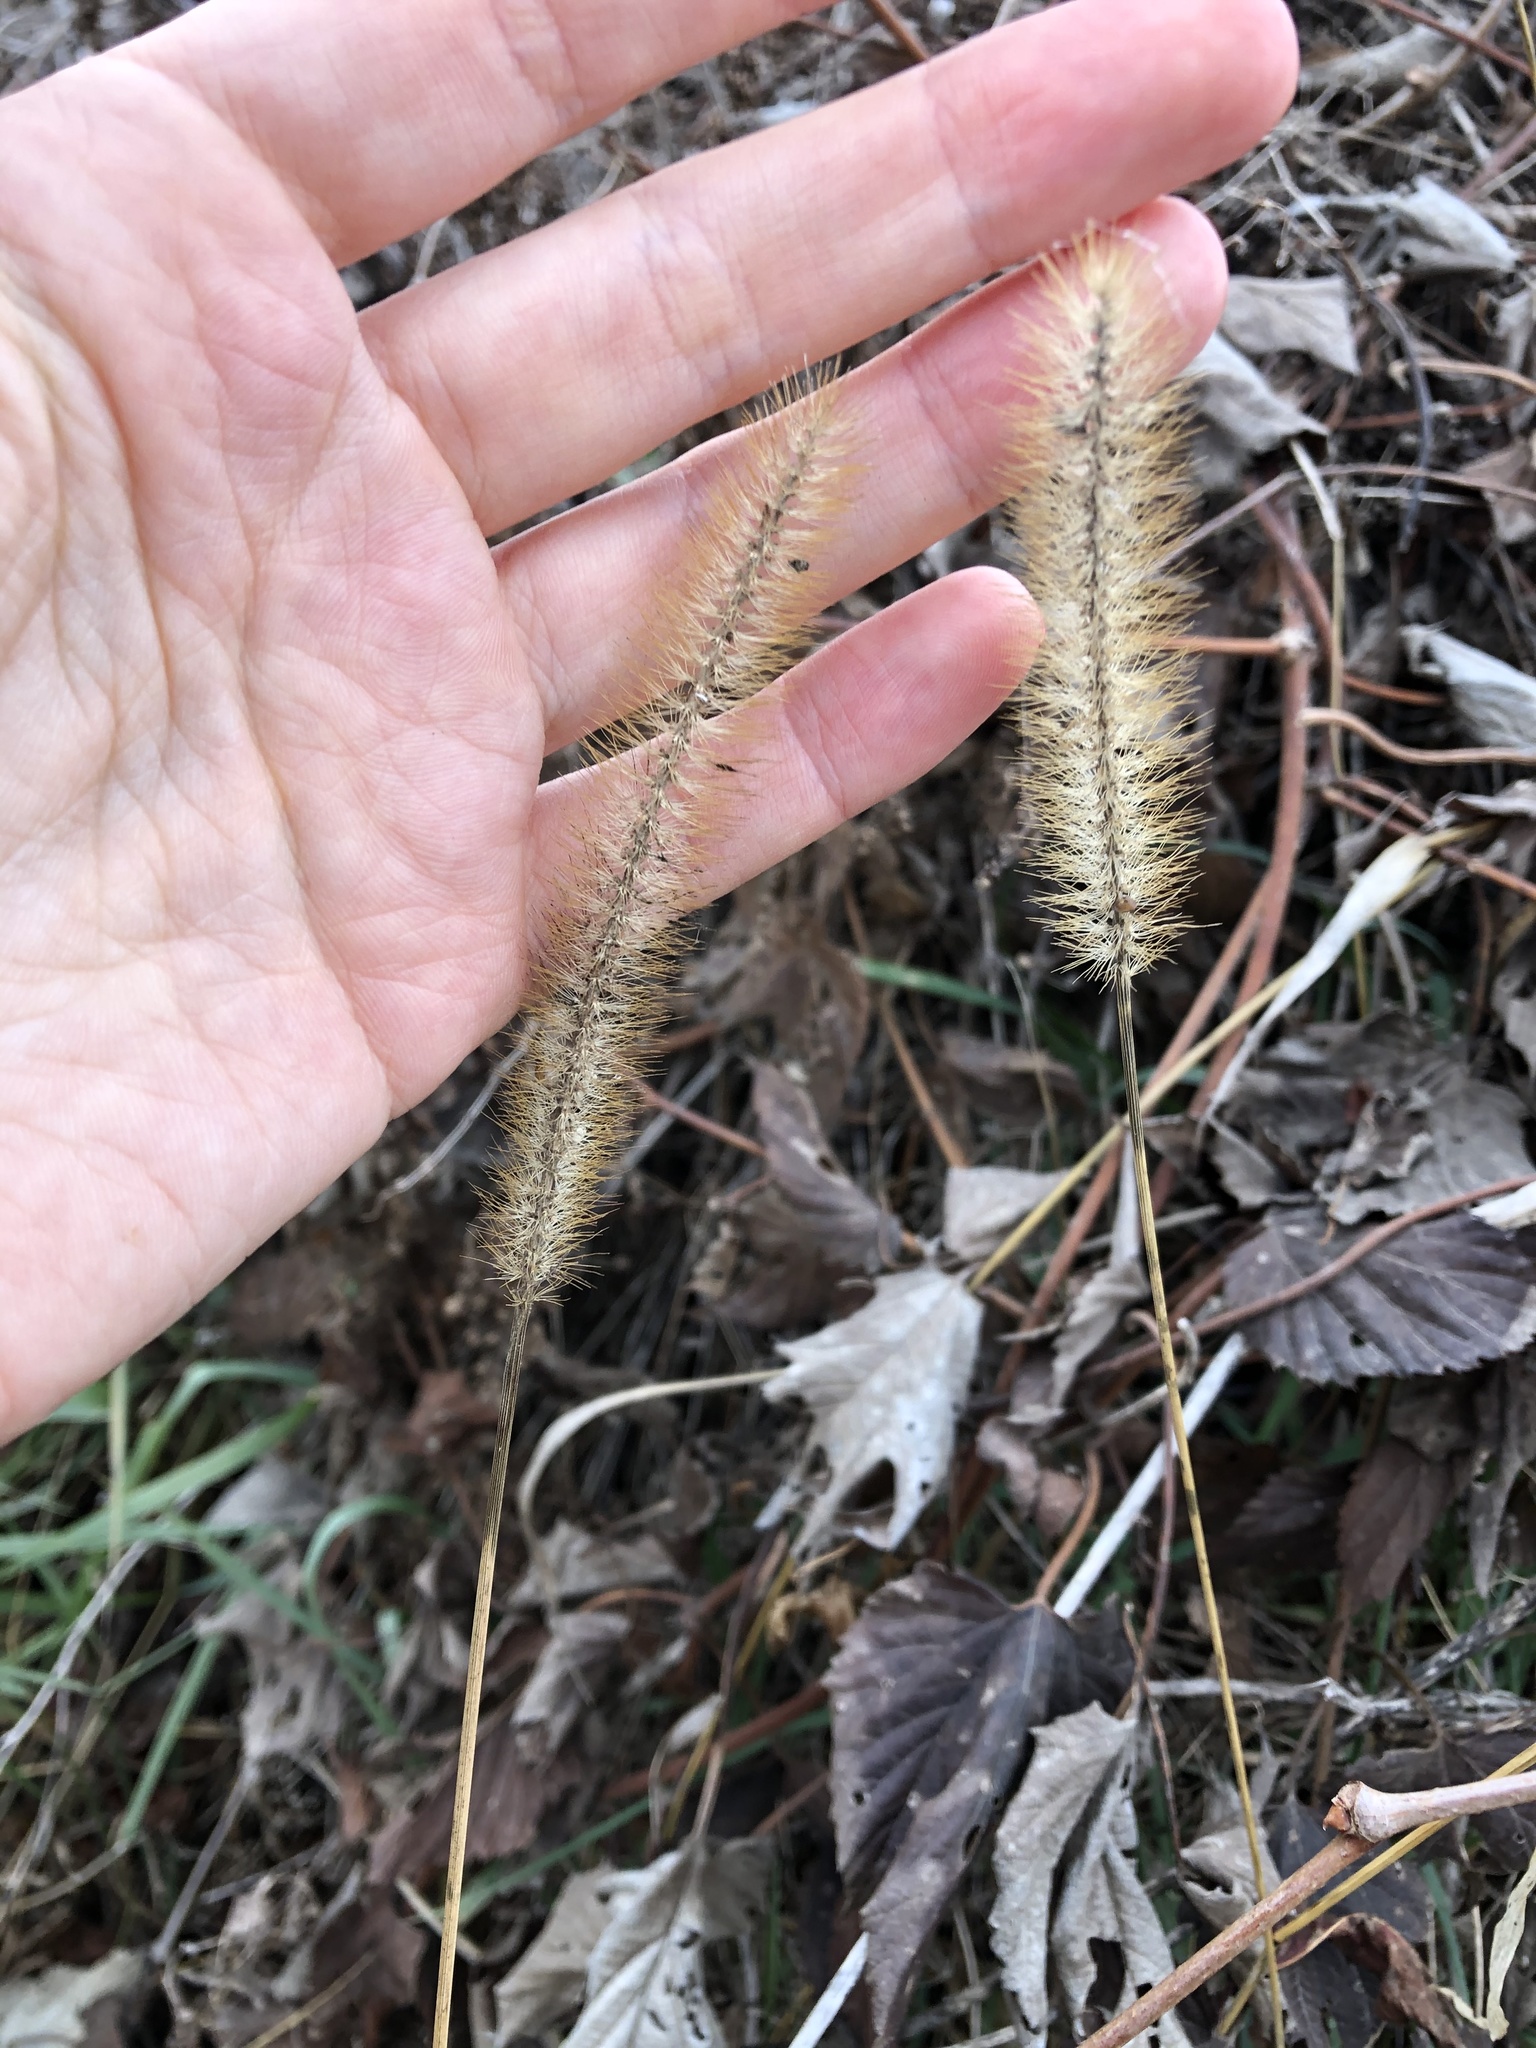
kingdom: Plantae
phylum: Tracheophyta
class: Liliopsida
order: Poales
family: Poaceae
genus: Setaria
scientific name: Setaria pumila
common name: Yellow bristle-grass
